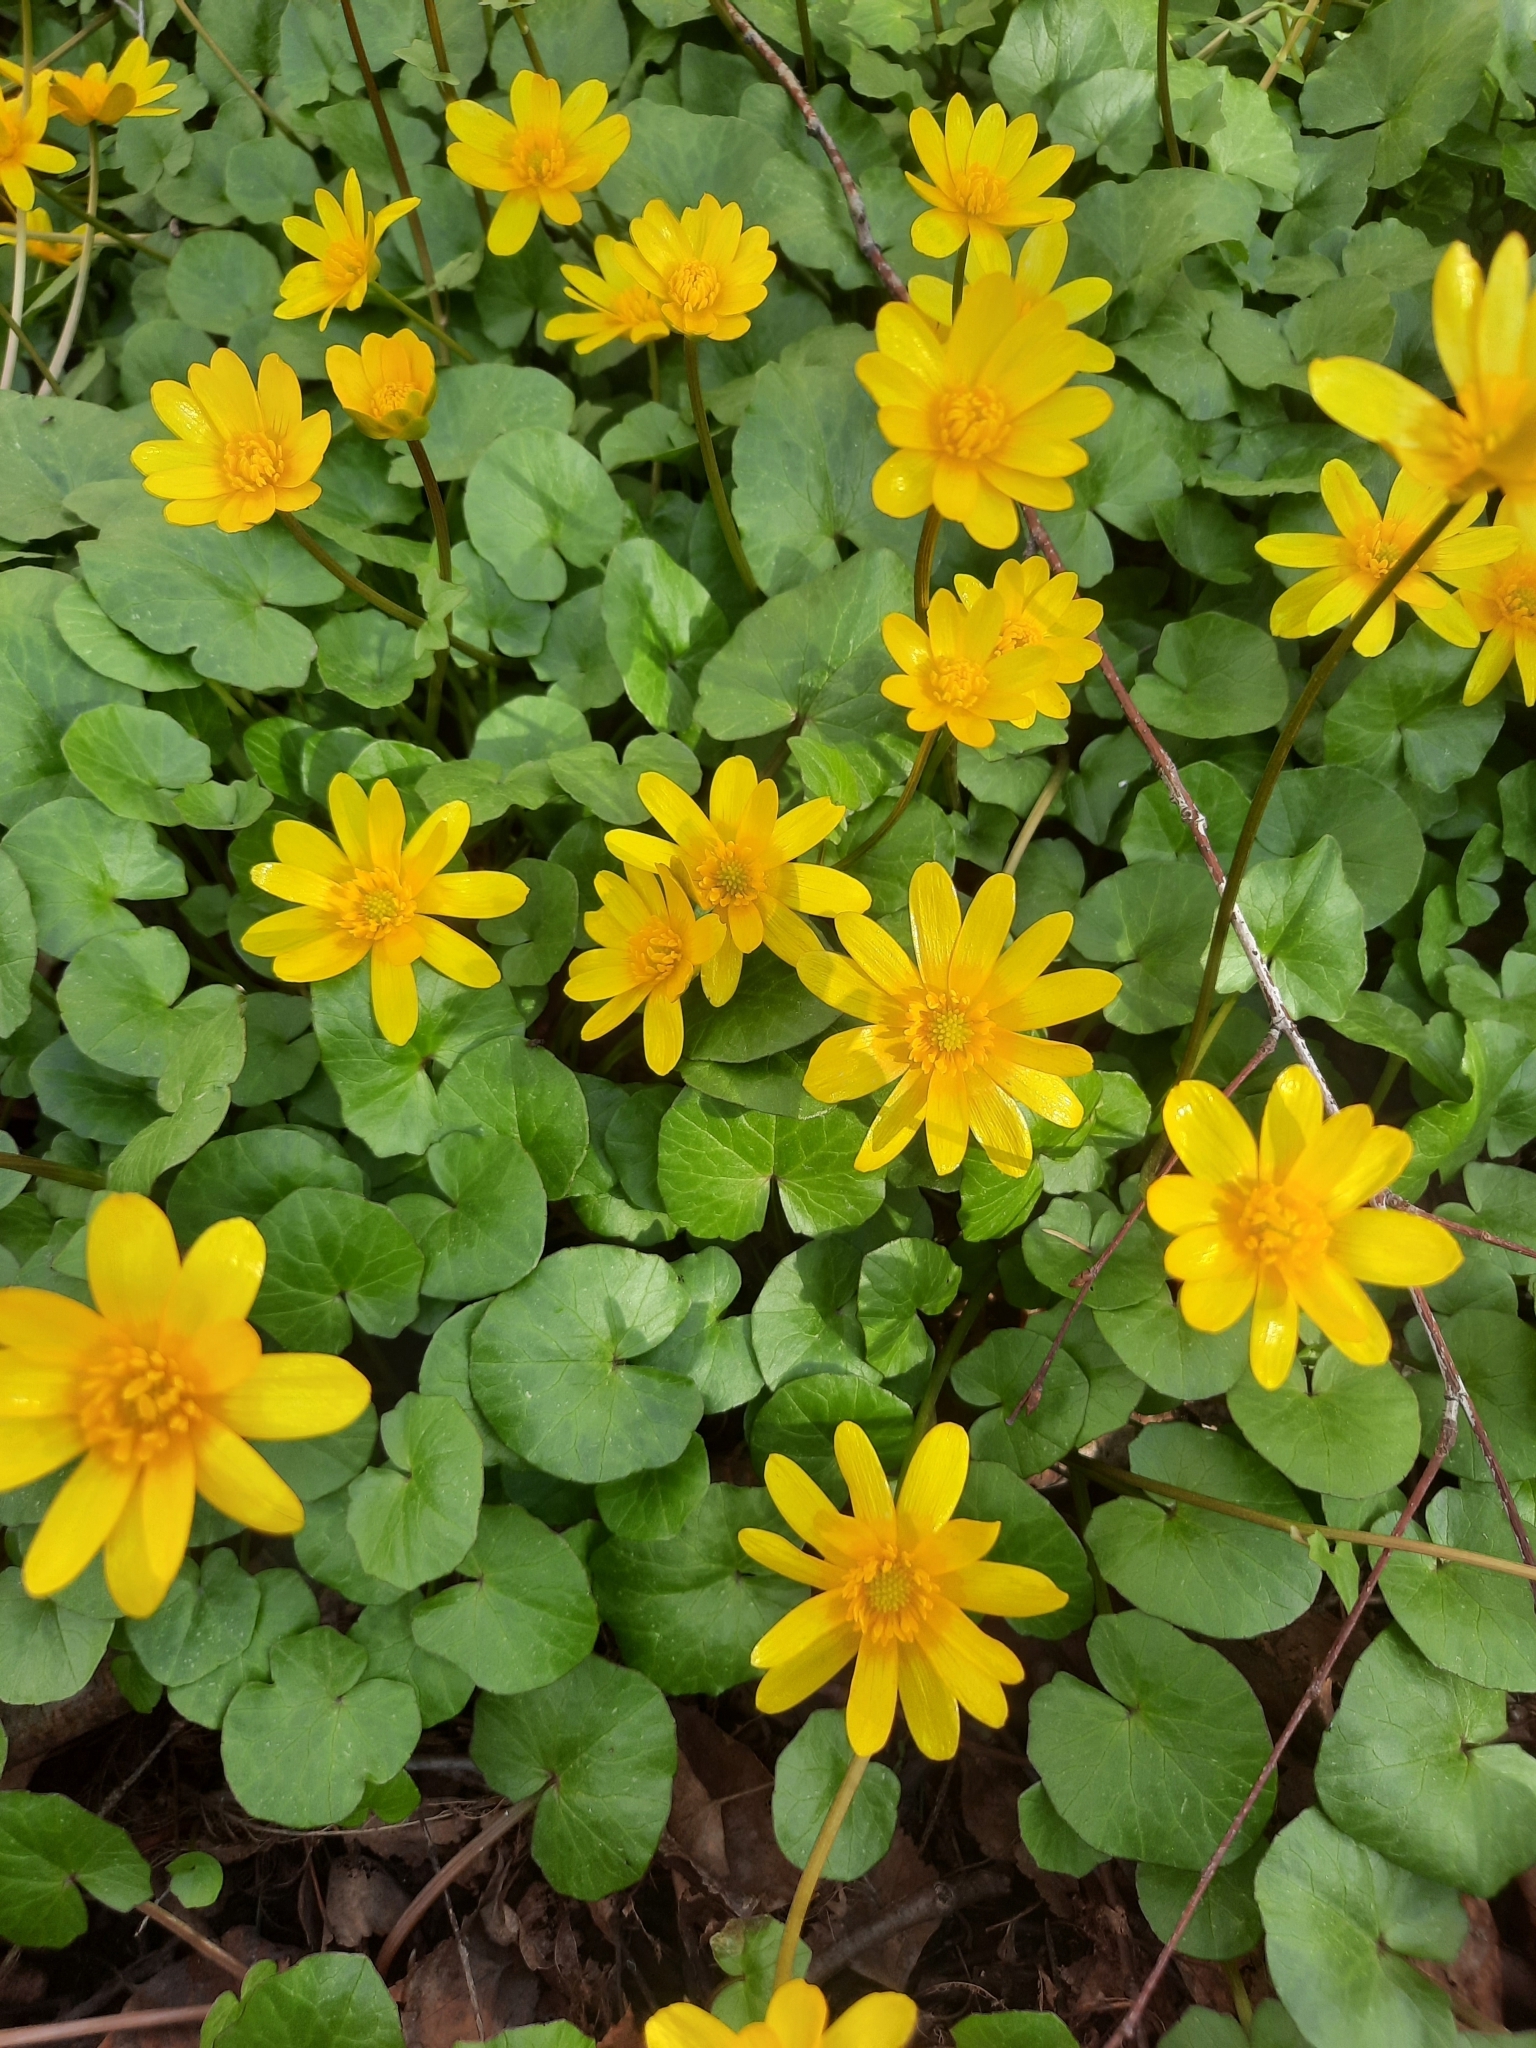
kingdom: Plantae
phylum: Tracheophyta
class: Magnoliopsida
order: Ranunculales
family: Ranunculaceae
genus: Ficaria
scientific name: Ficaria verna
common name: Lesser celandine
